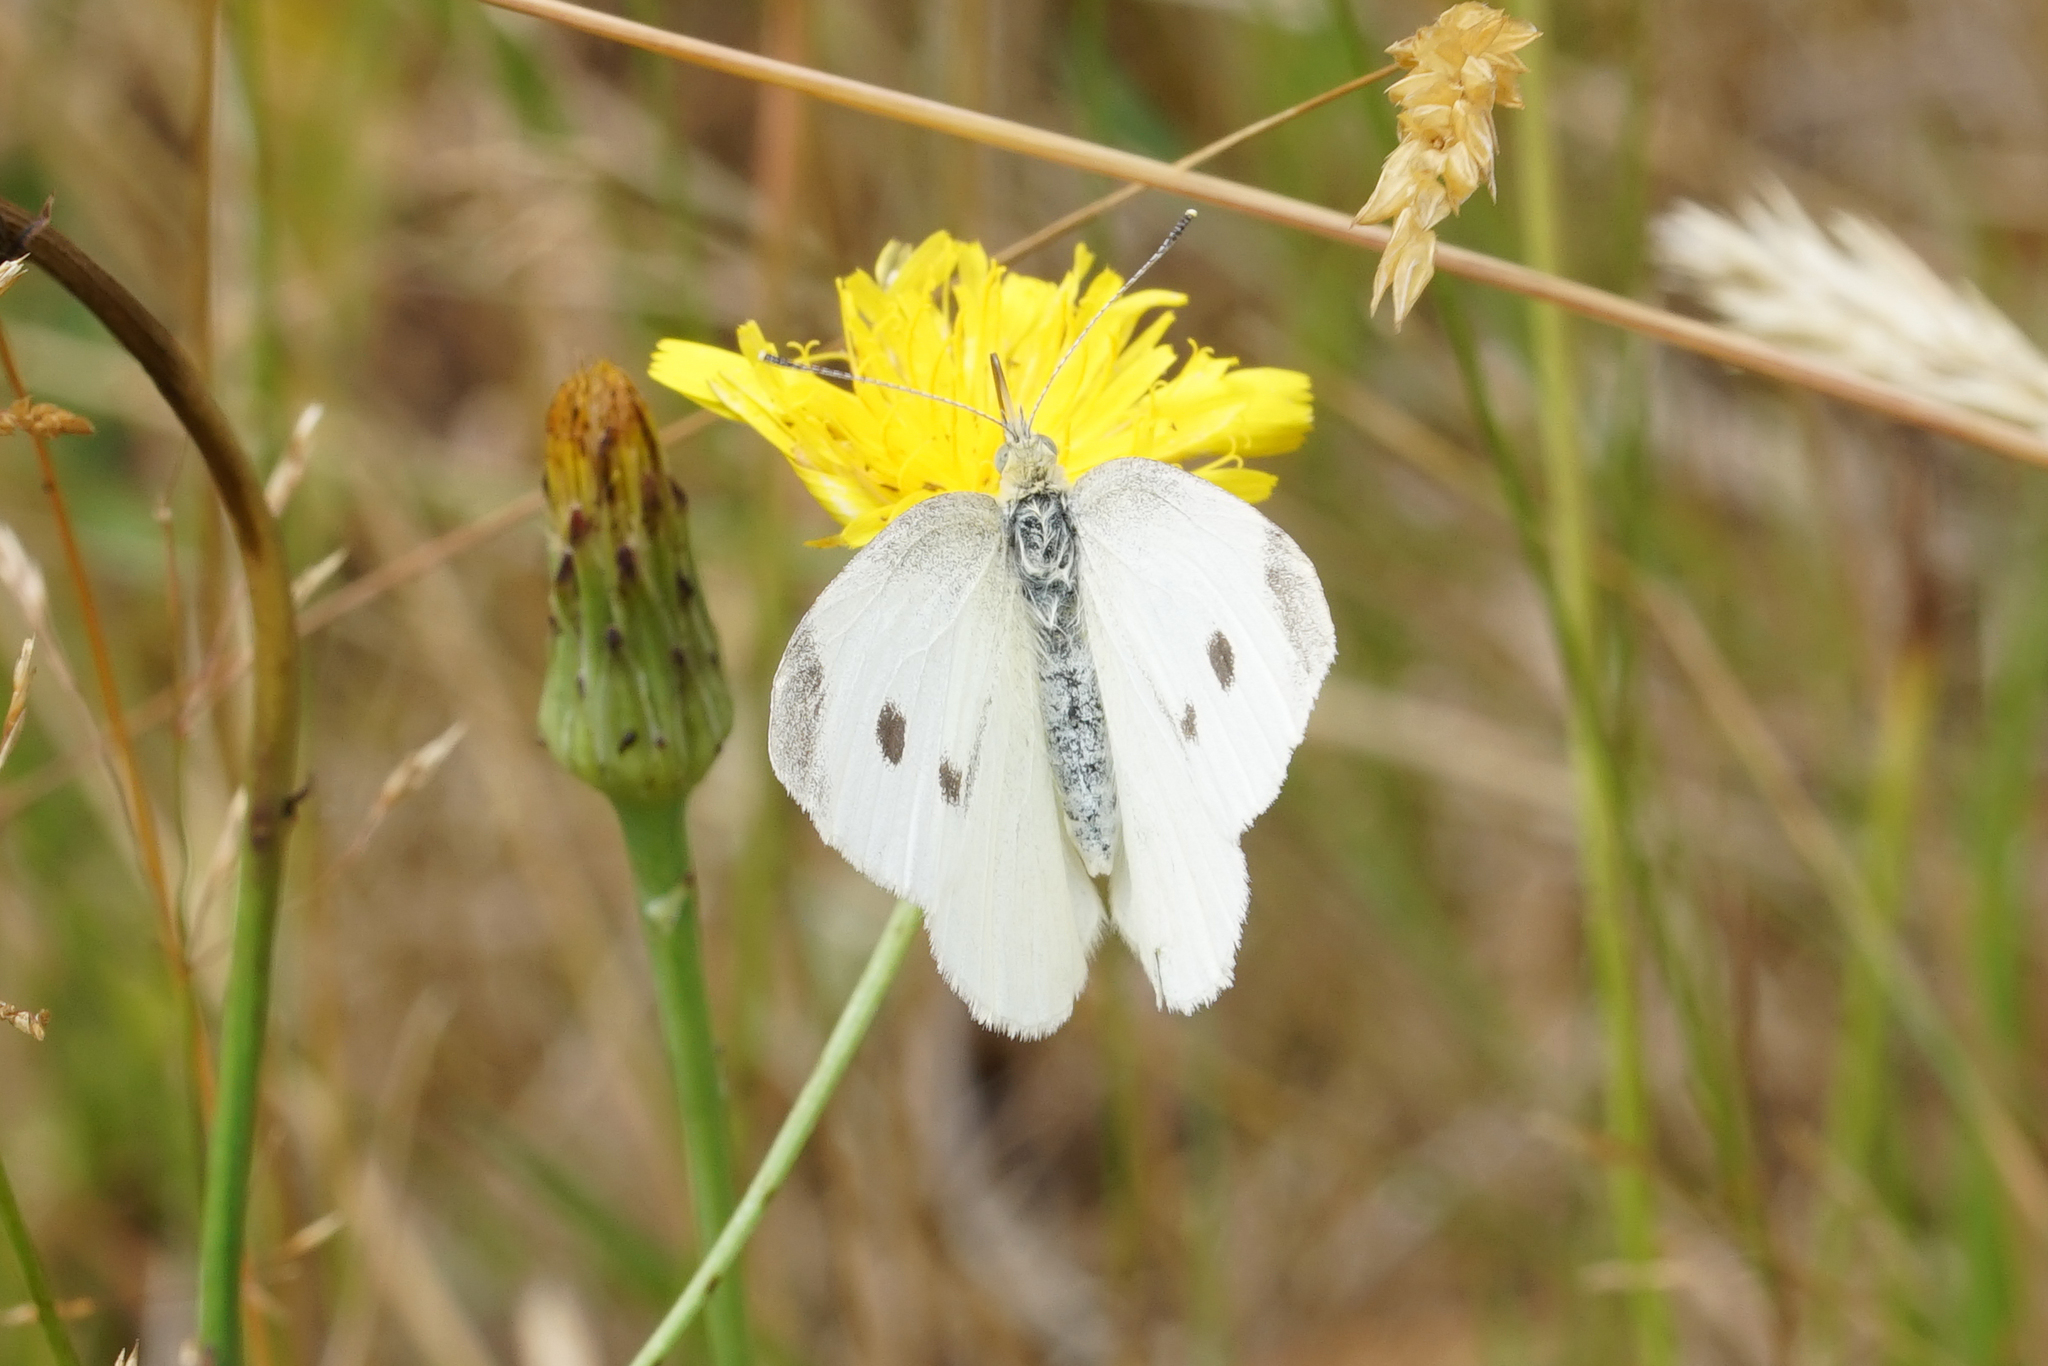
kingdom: Animalia
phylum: Arthropoda
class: Insecta
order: Lepidoptera
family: Pieridae
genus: Pieris
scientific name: Pieris rapae
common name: Small white
